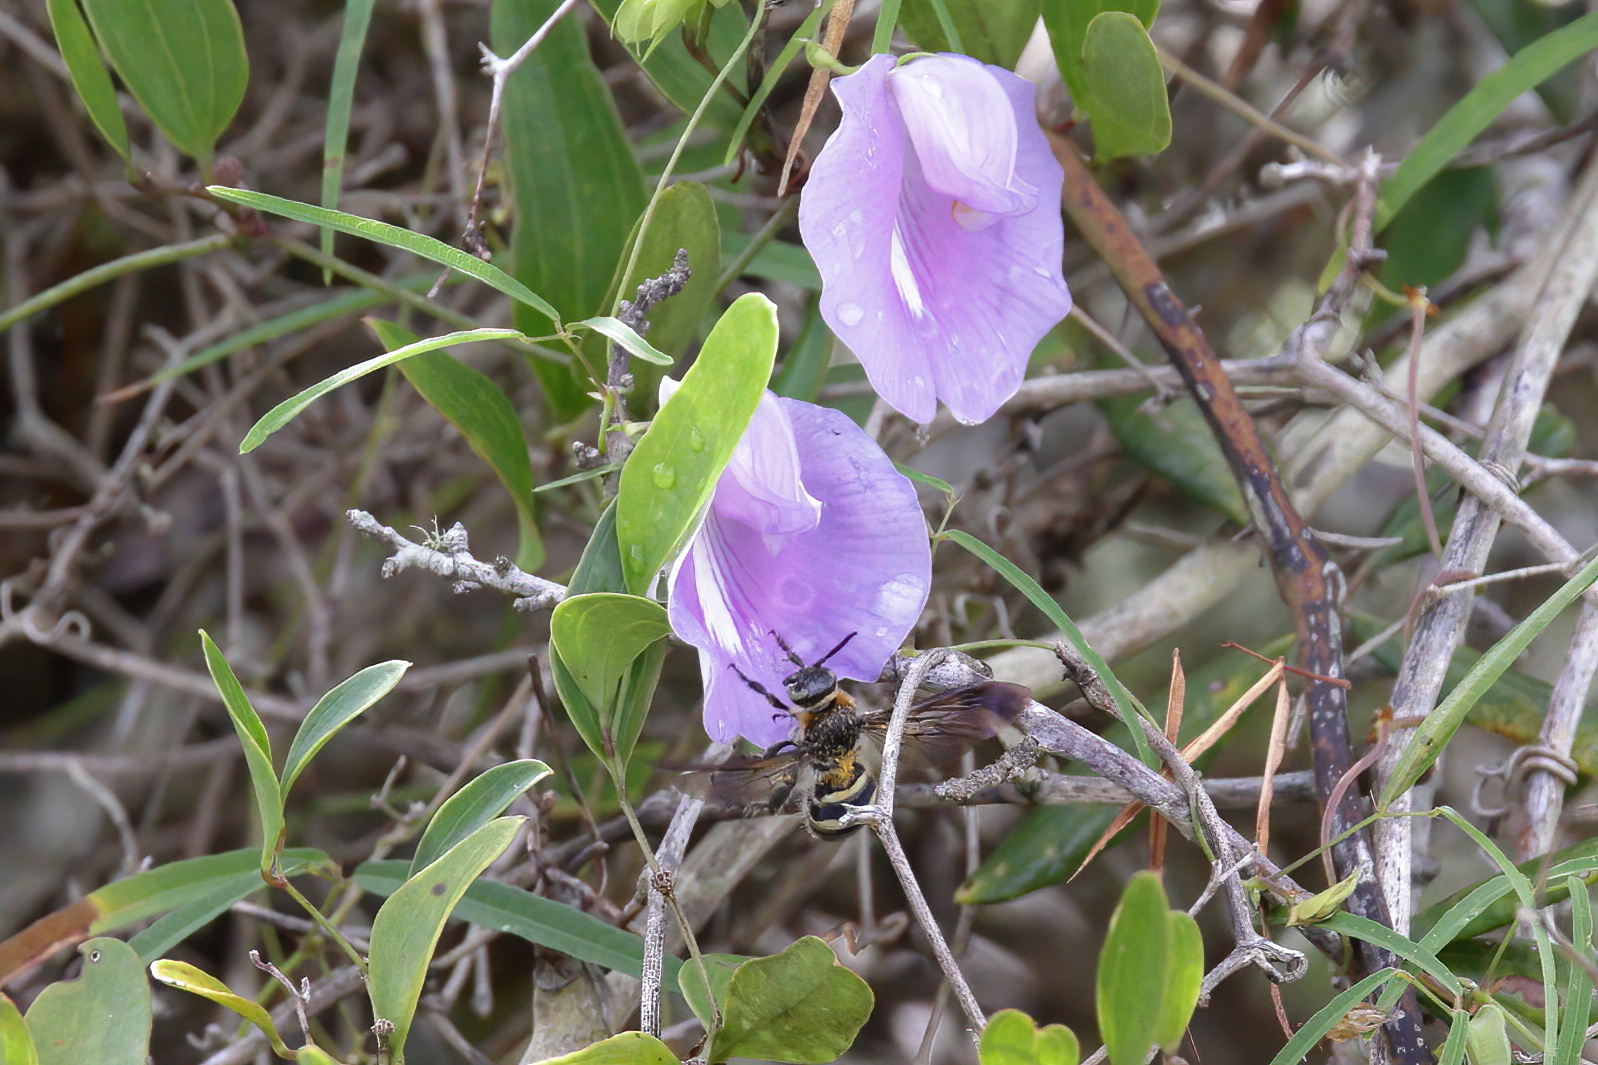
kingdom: Animalia
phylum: Arthropoda
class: Insecta
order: Hymenoptera
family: Scoliidae
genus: Dielis
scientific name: Dielis
